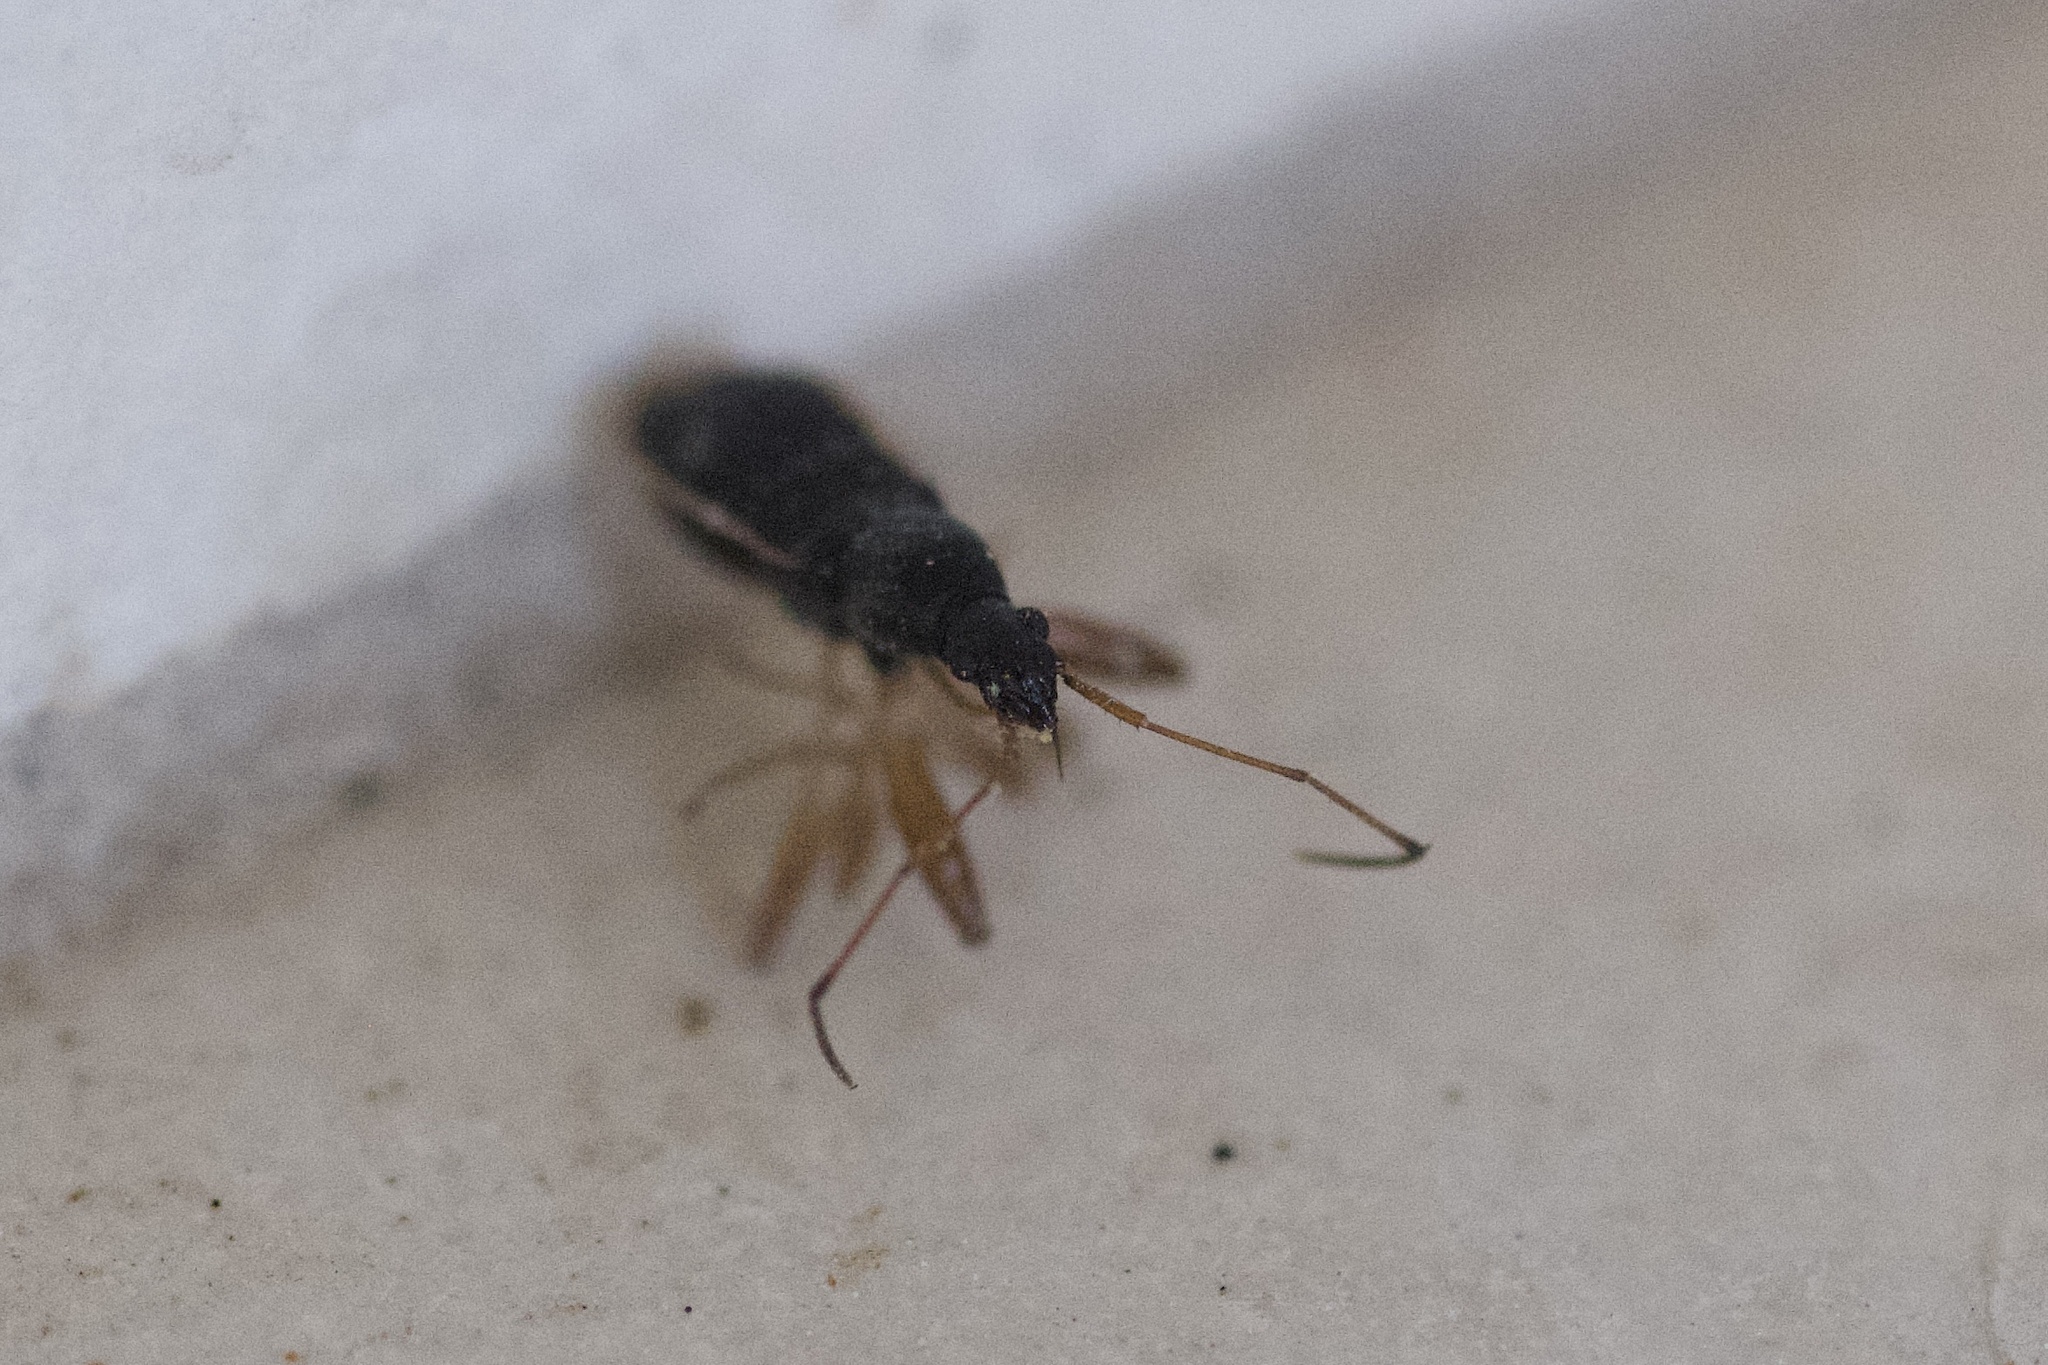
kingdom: Animalia
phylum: Arthropoda
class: Insecta
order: Hemiptera
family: Rhyparochromidae
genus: Cnemodus
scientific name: Cnemodus mavortius
